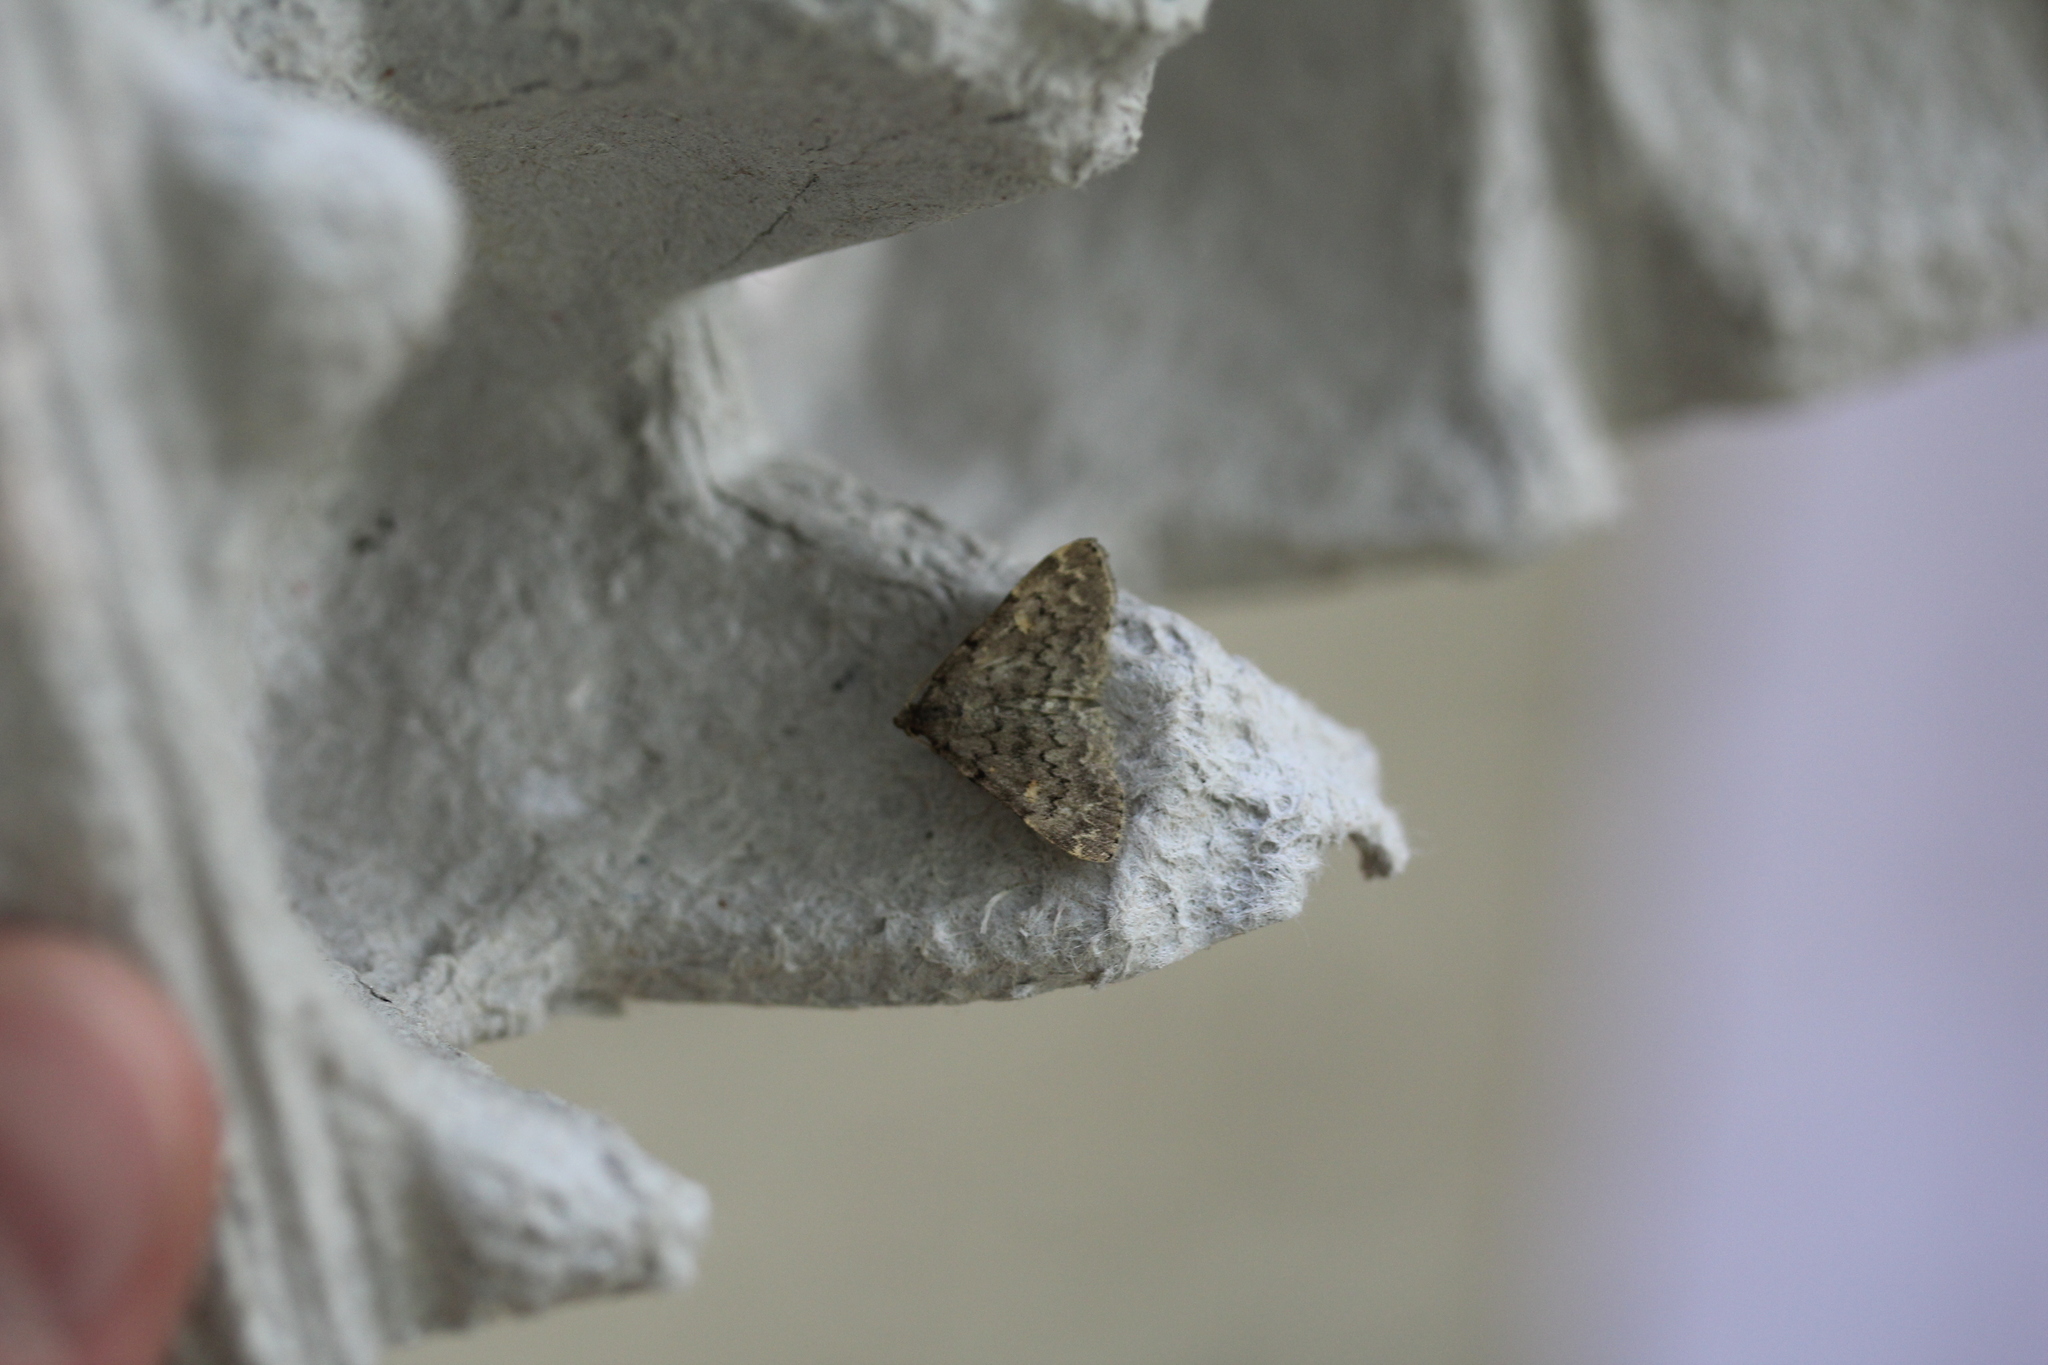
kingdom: Animalia
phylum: Arthropoda
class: Insecta
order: Lepidoptera
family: Erebidae
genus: Idia
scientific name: Idia aemula
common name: Common idia moth
